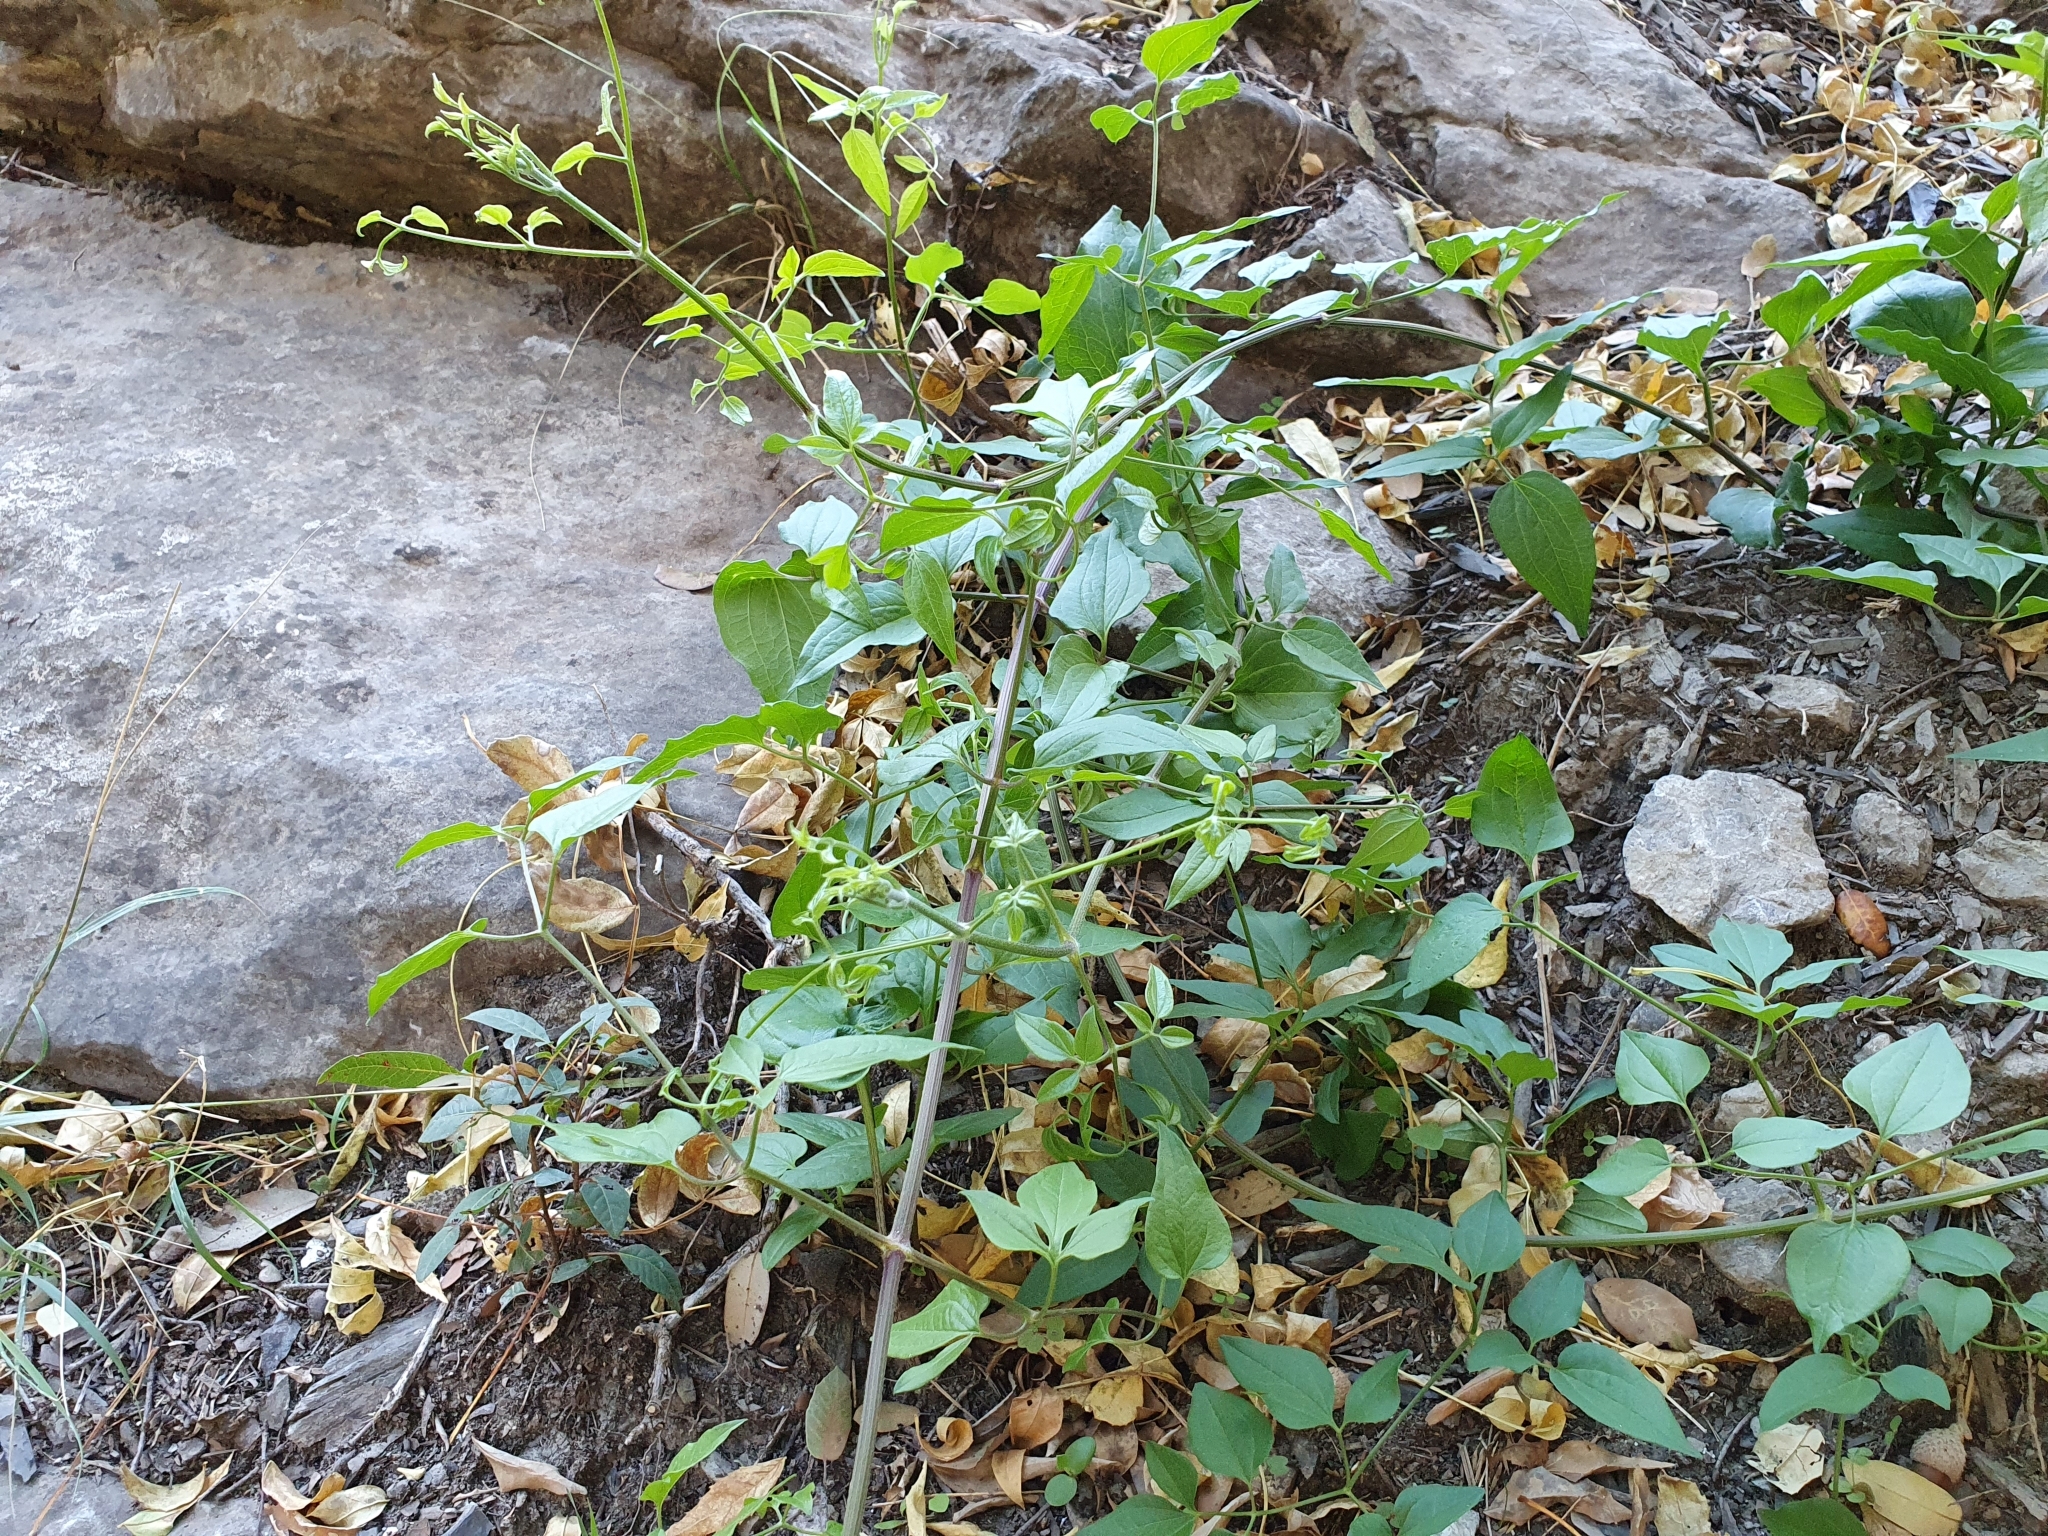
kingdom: Plantae
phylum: Tracheophyta
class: Magnoliopsida
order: Ranunculales
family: Ranunculaceae
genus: Clematis
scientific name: Clematis flammula
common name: Virgin's-bower
